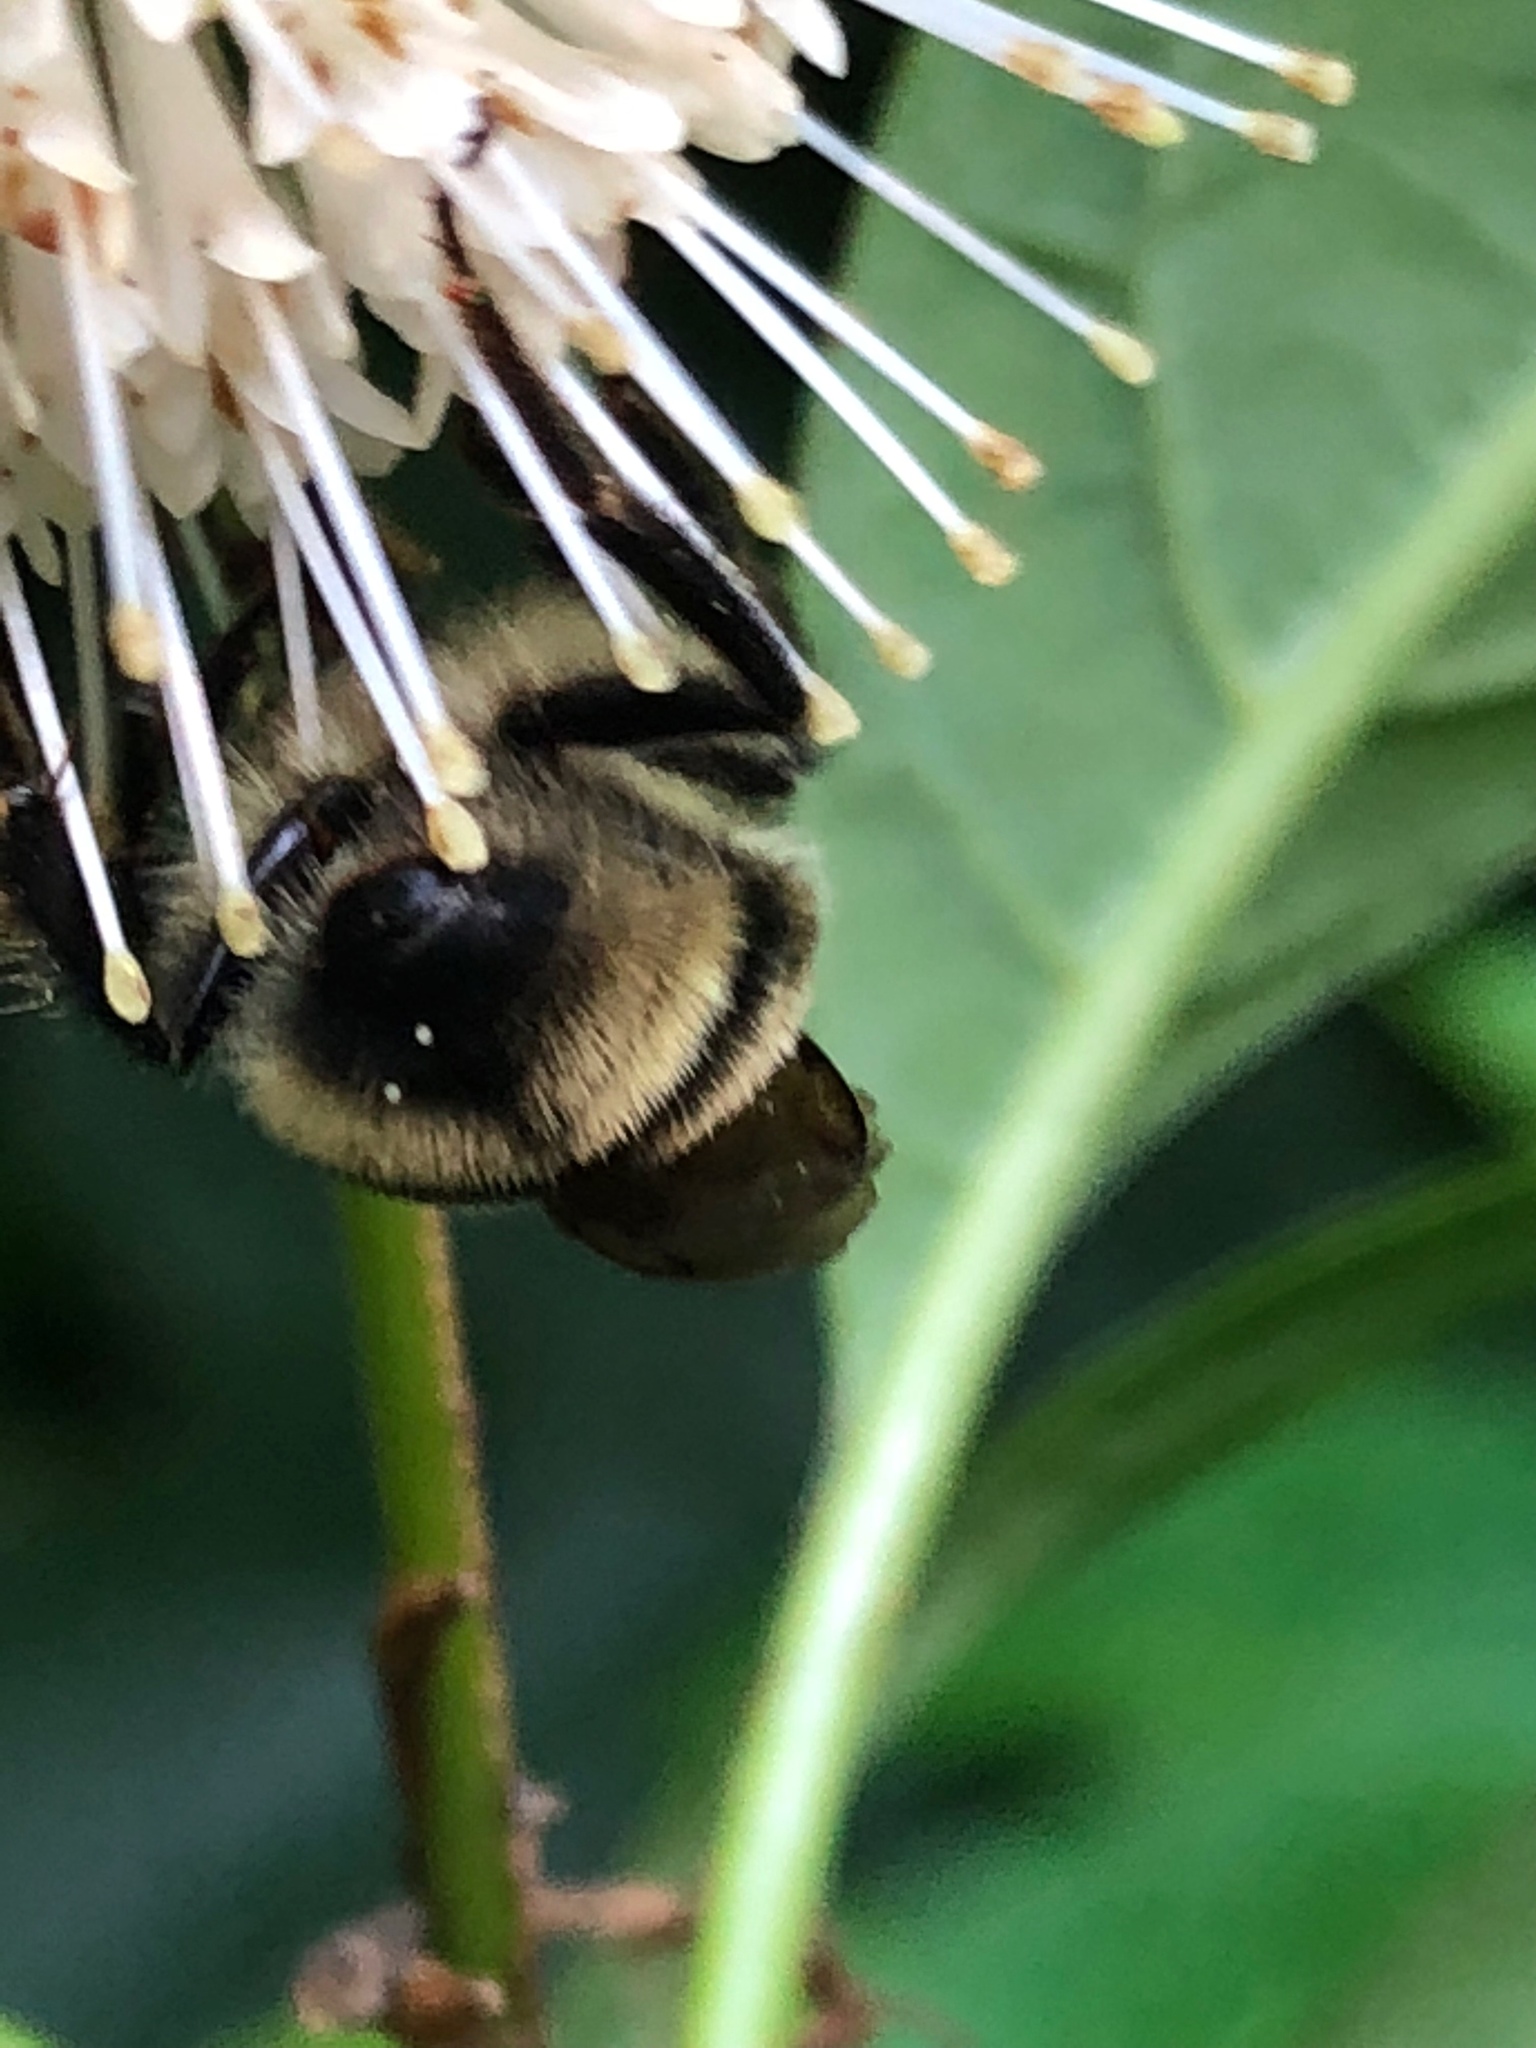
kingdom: Animalia
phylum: Arthropoda
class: Insecta
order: Hymenoptera
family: Apidae
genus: Bombus
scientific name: Bombus bimaculatus
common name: Two-spotted bumble bee
